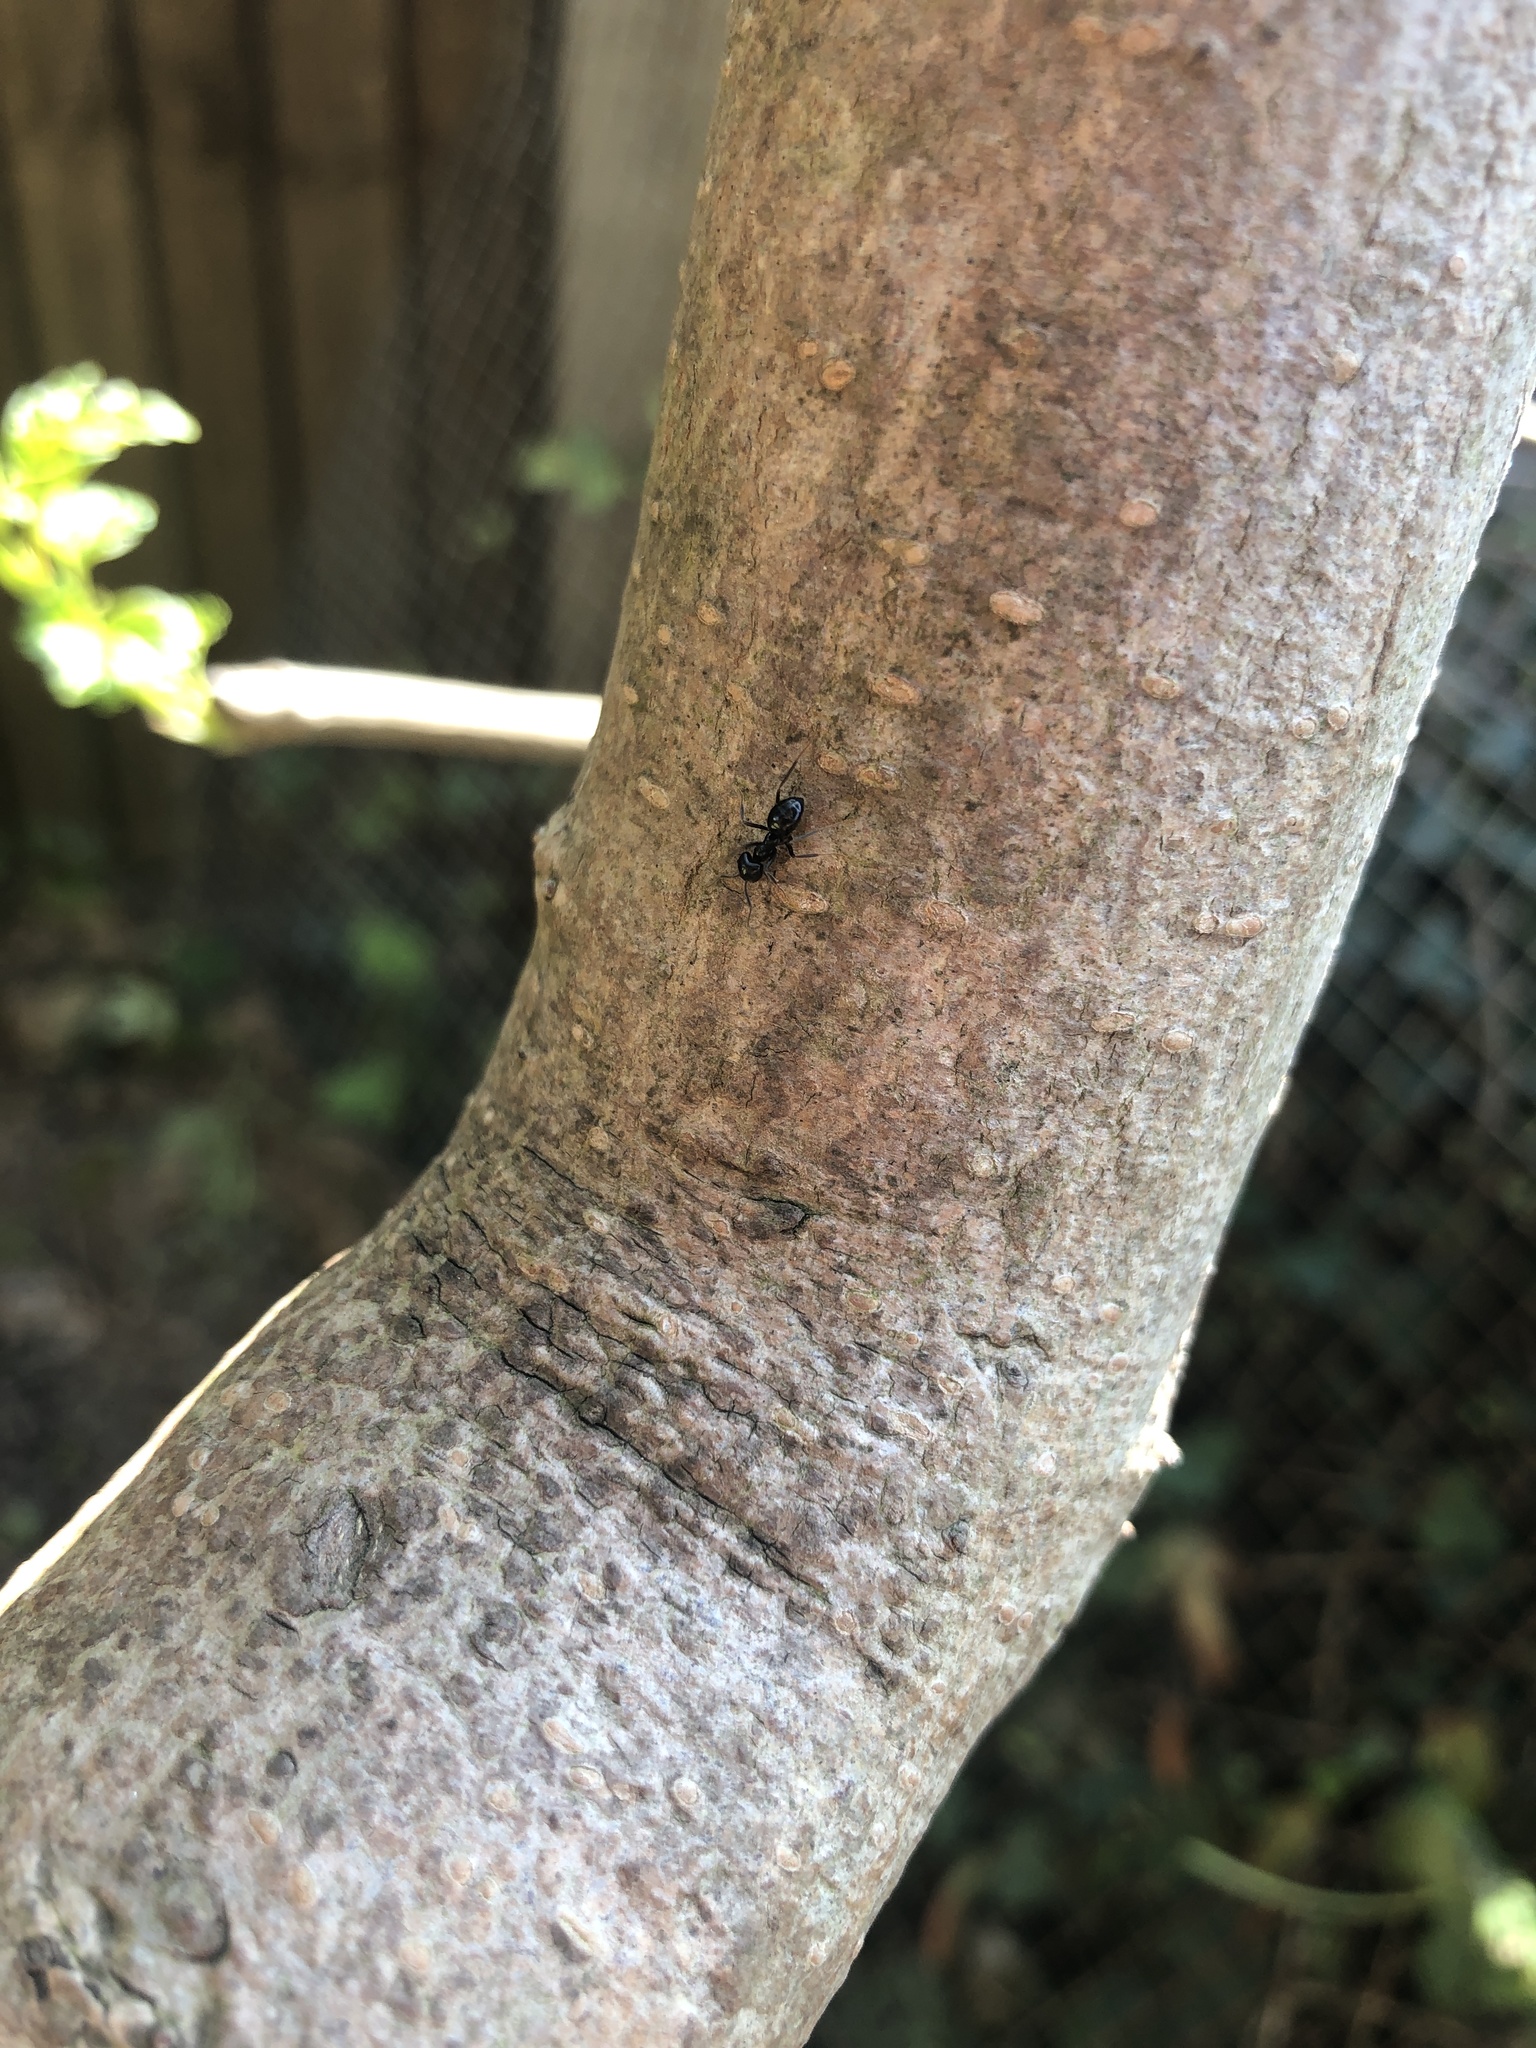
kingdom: Animalia
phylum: Arthropoda
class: Insecta
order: Hymenoptera
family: Formicidae
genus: Lasius
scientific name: Lasius niger
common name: Small black ant
